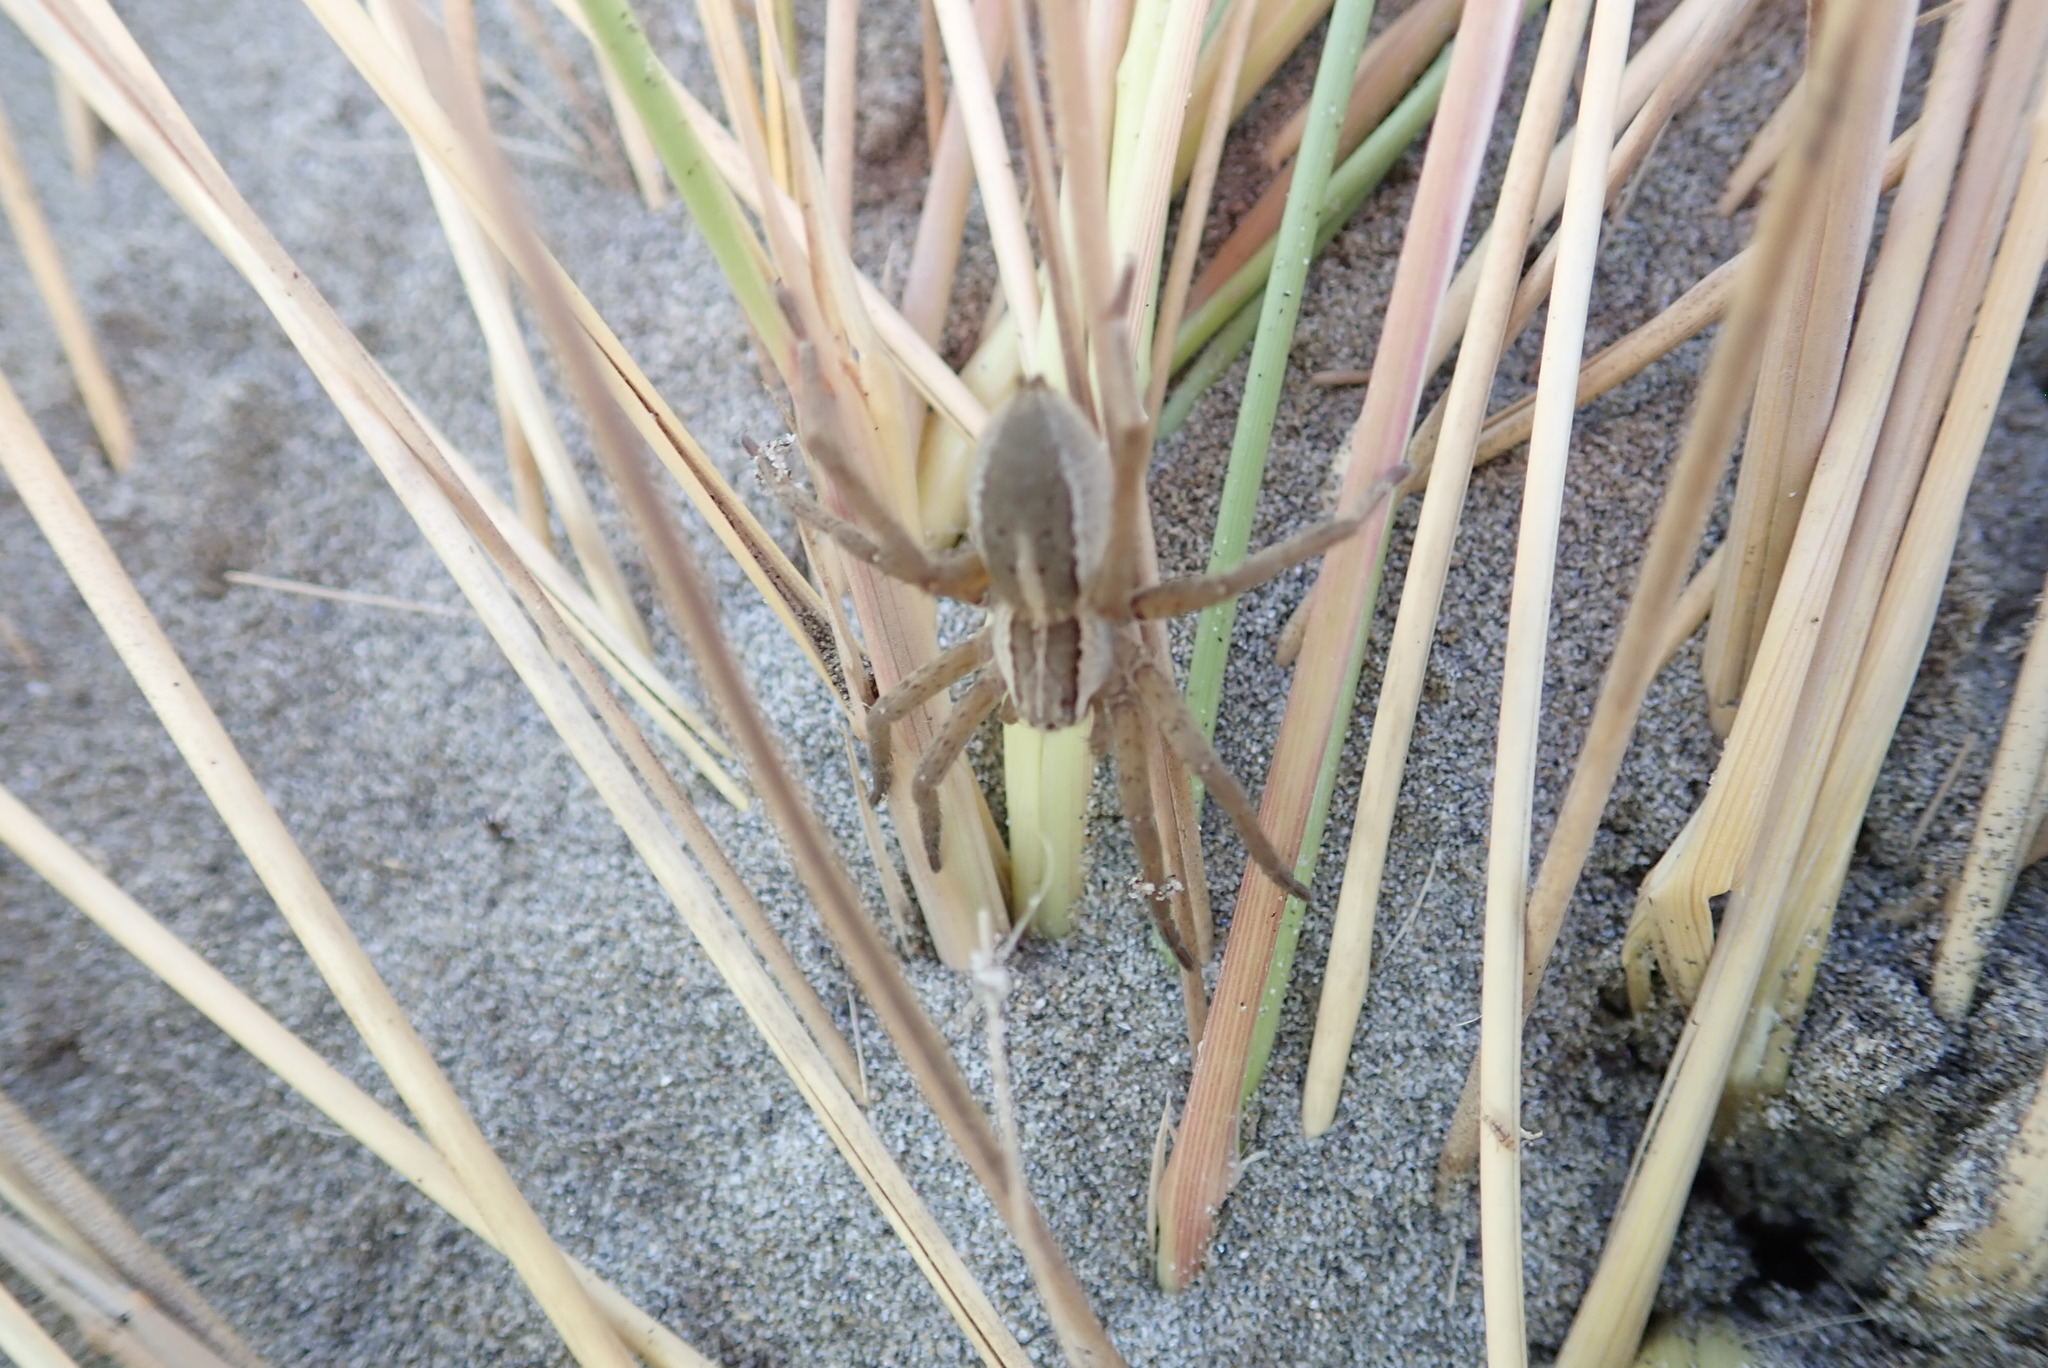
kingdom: Animalia
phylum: Arthropoda
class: Arachnida
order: Araneae
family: Pisauridae
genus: Dolomedes
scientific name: Dolomedes minor
